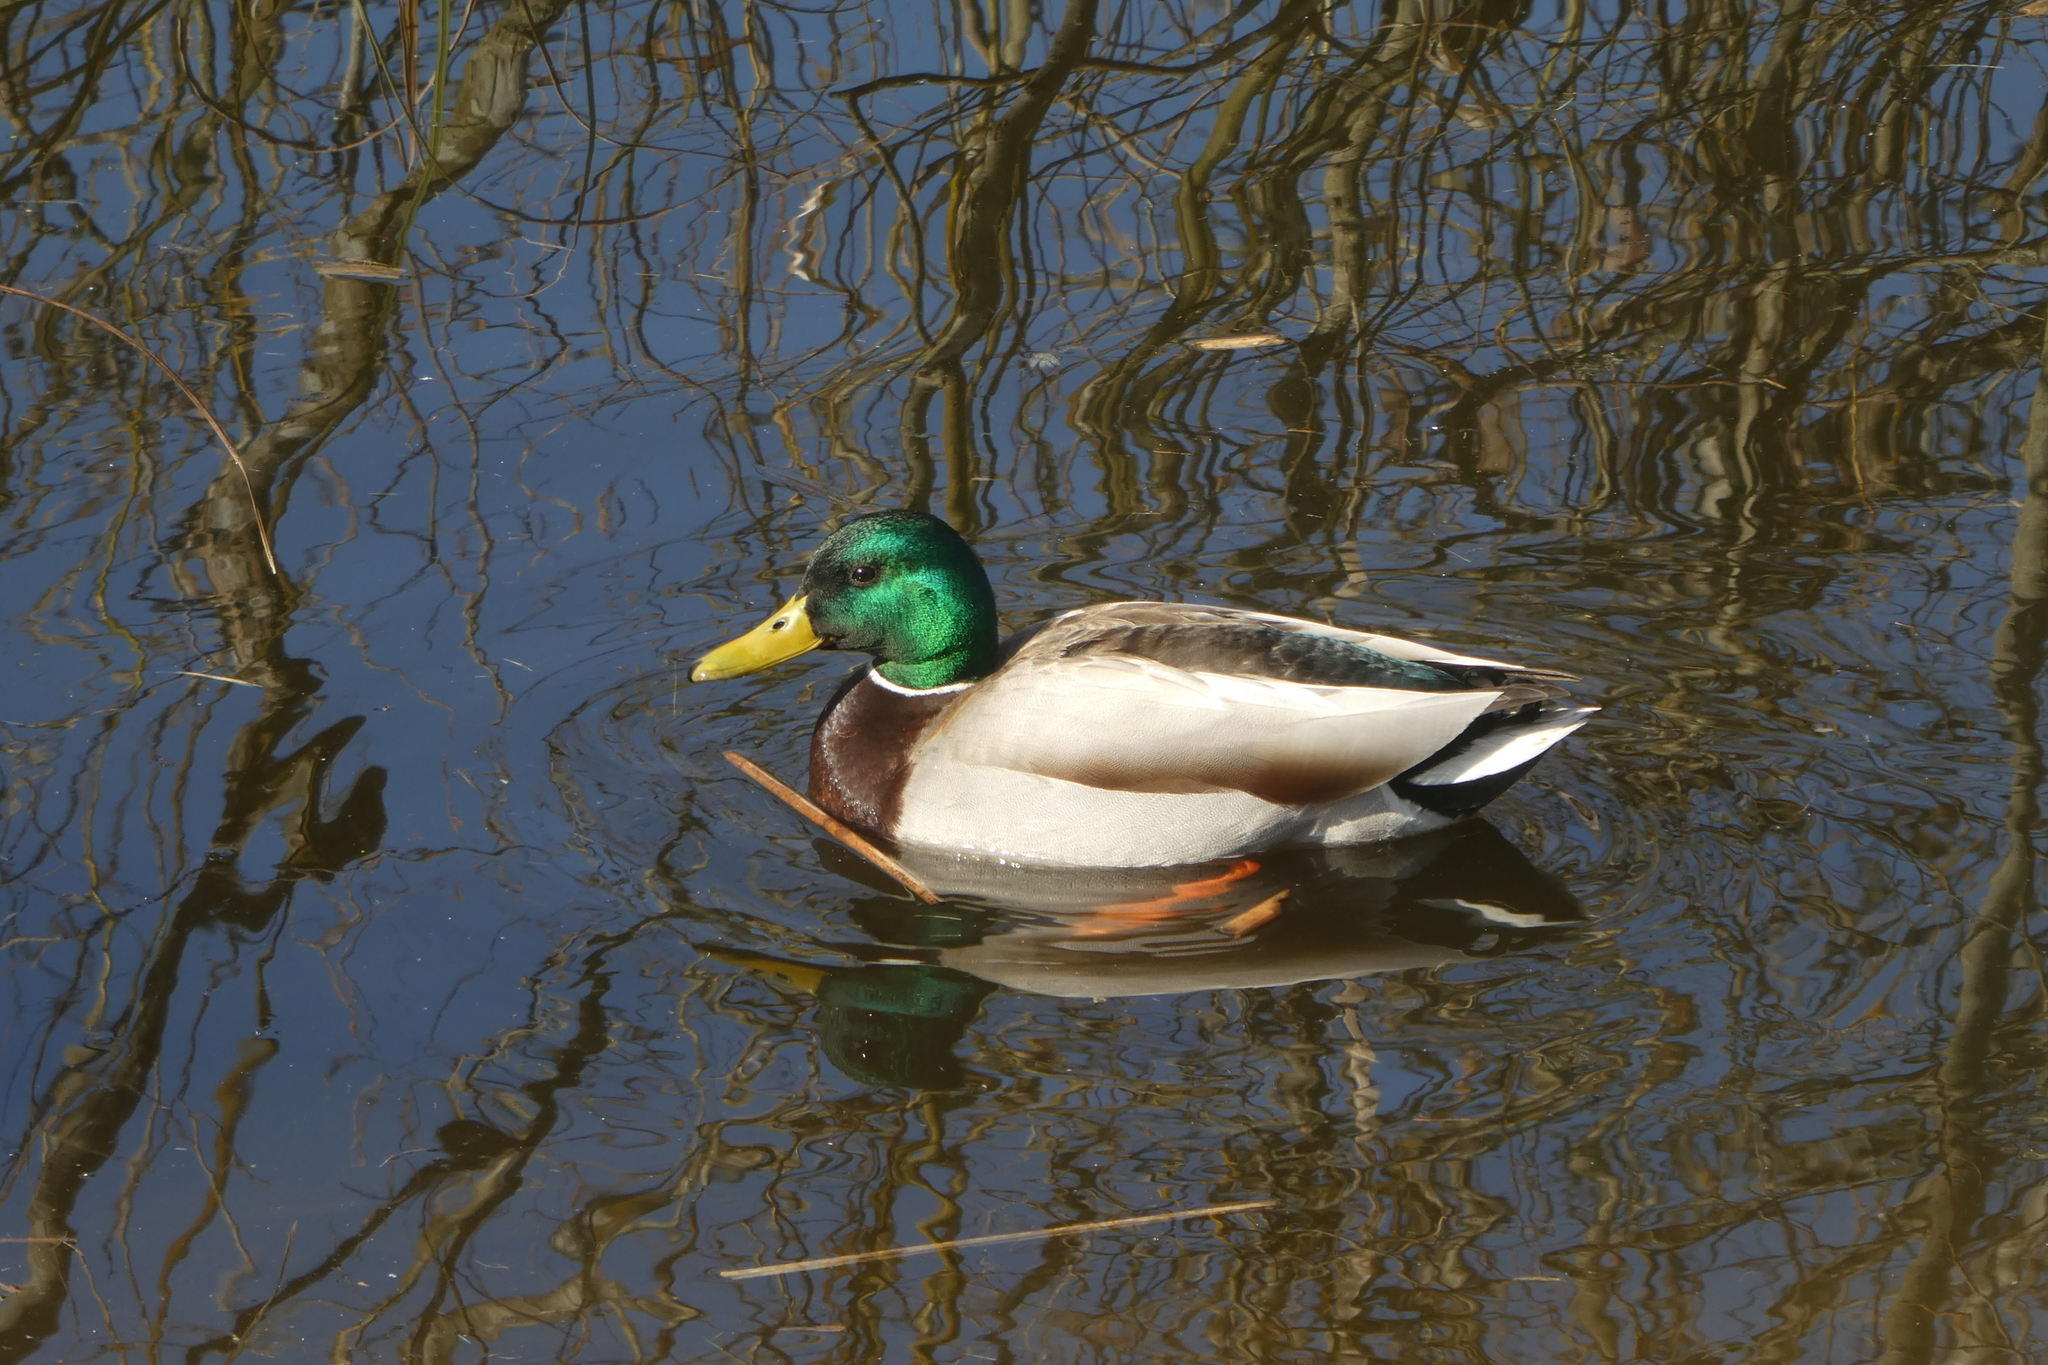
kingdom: Animalia
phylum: Chordata
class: Aves
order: Anseriformes
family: Anatidae
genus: Anas
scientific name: Anas platyrhynchos
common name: Mallard
